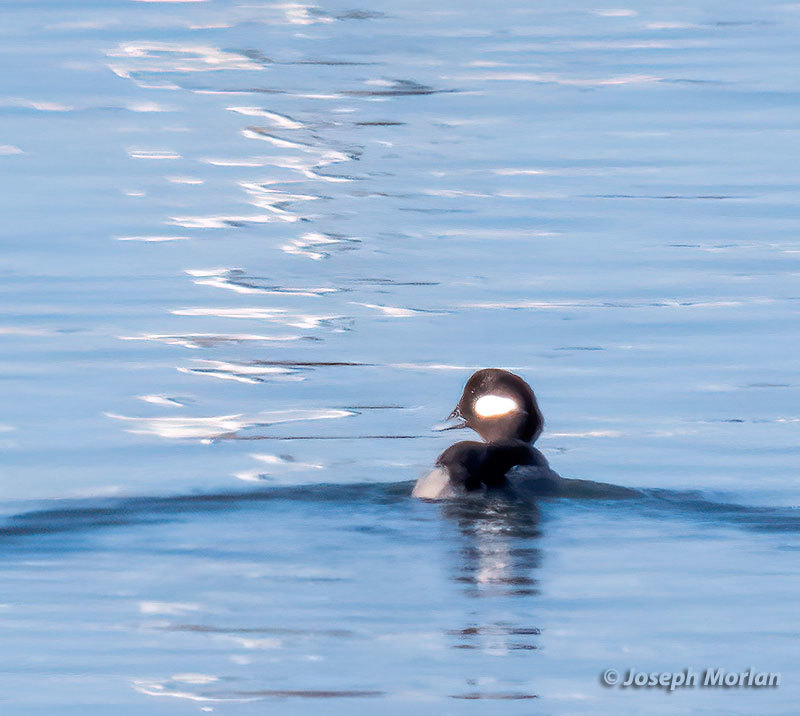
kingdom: Animalia
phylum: Chordata
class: Aves
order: Anseriformes
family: Anatidae
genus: Bucephala
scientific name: Bucephala albeola
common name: Bufflehead
